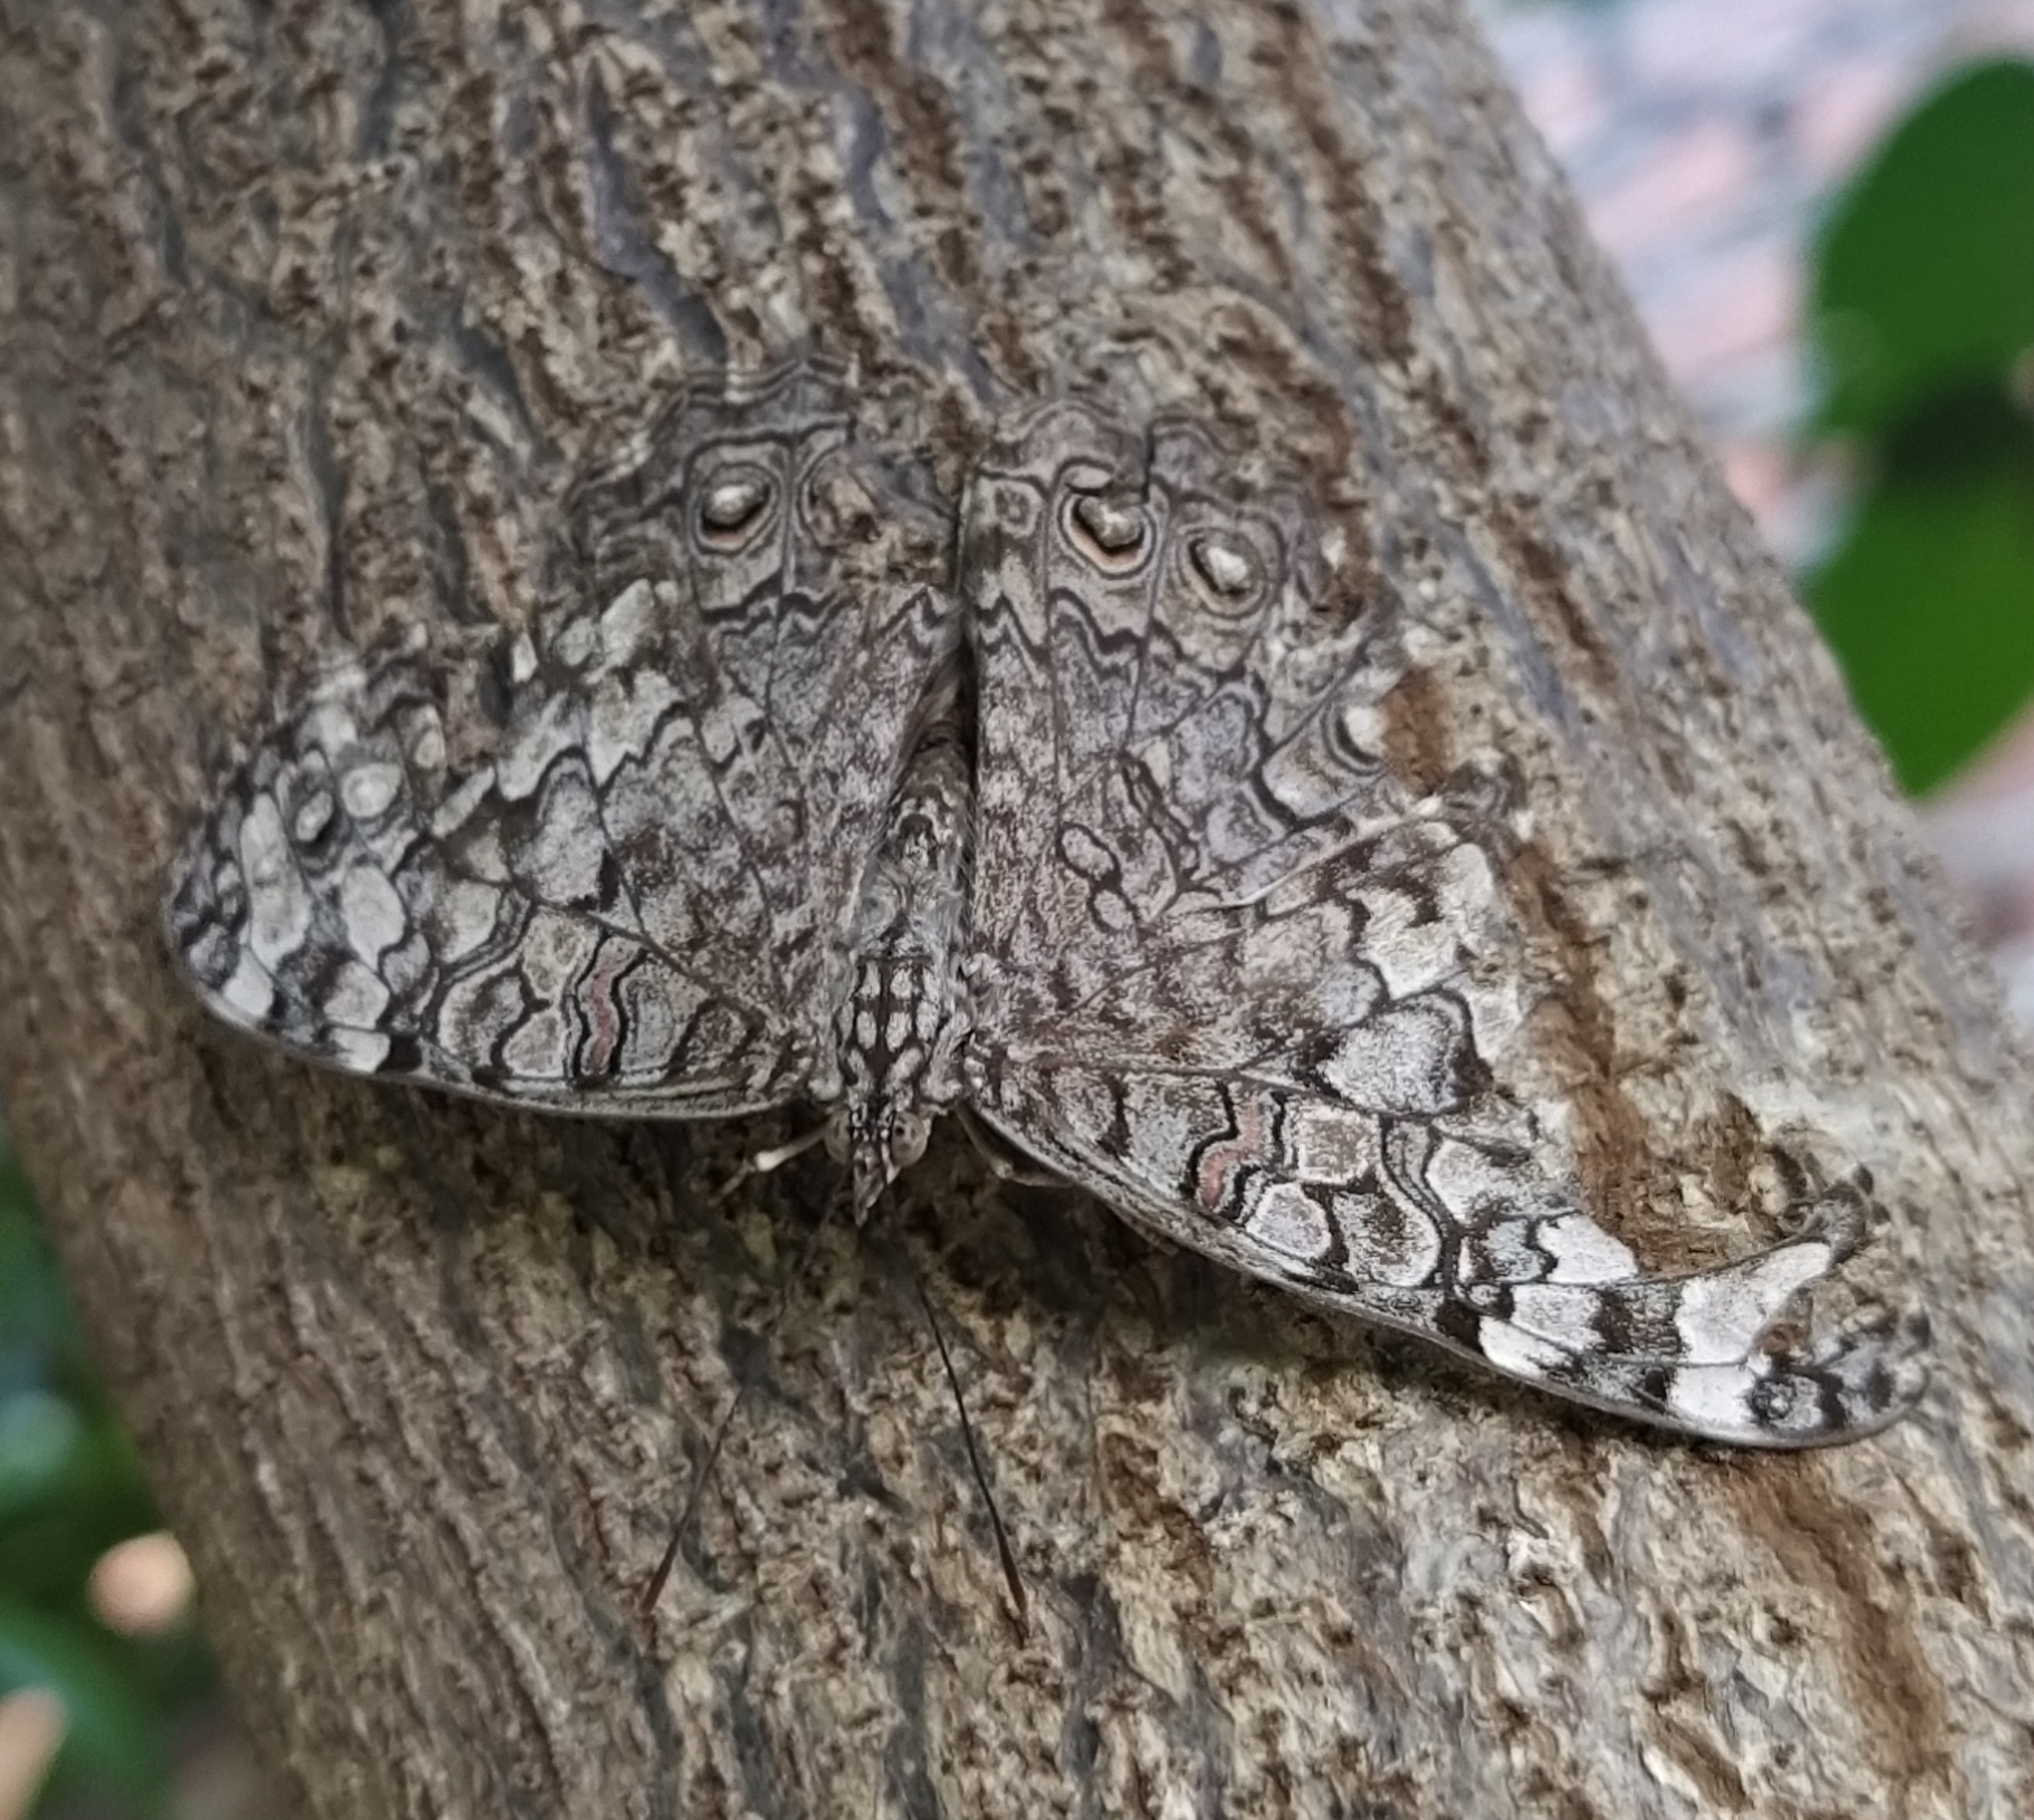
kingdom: Animalia
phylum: Arthropoda
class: Insecta
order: Lepidoptera
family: Nymphalidae
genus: Hamadryas
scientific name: Hamadryas februa
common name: Gray cracker
